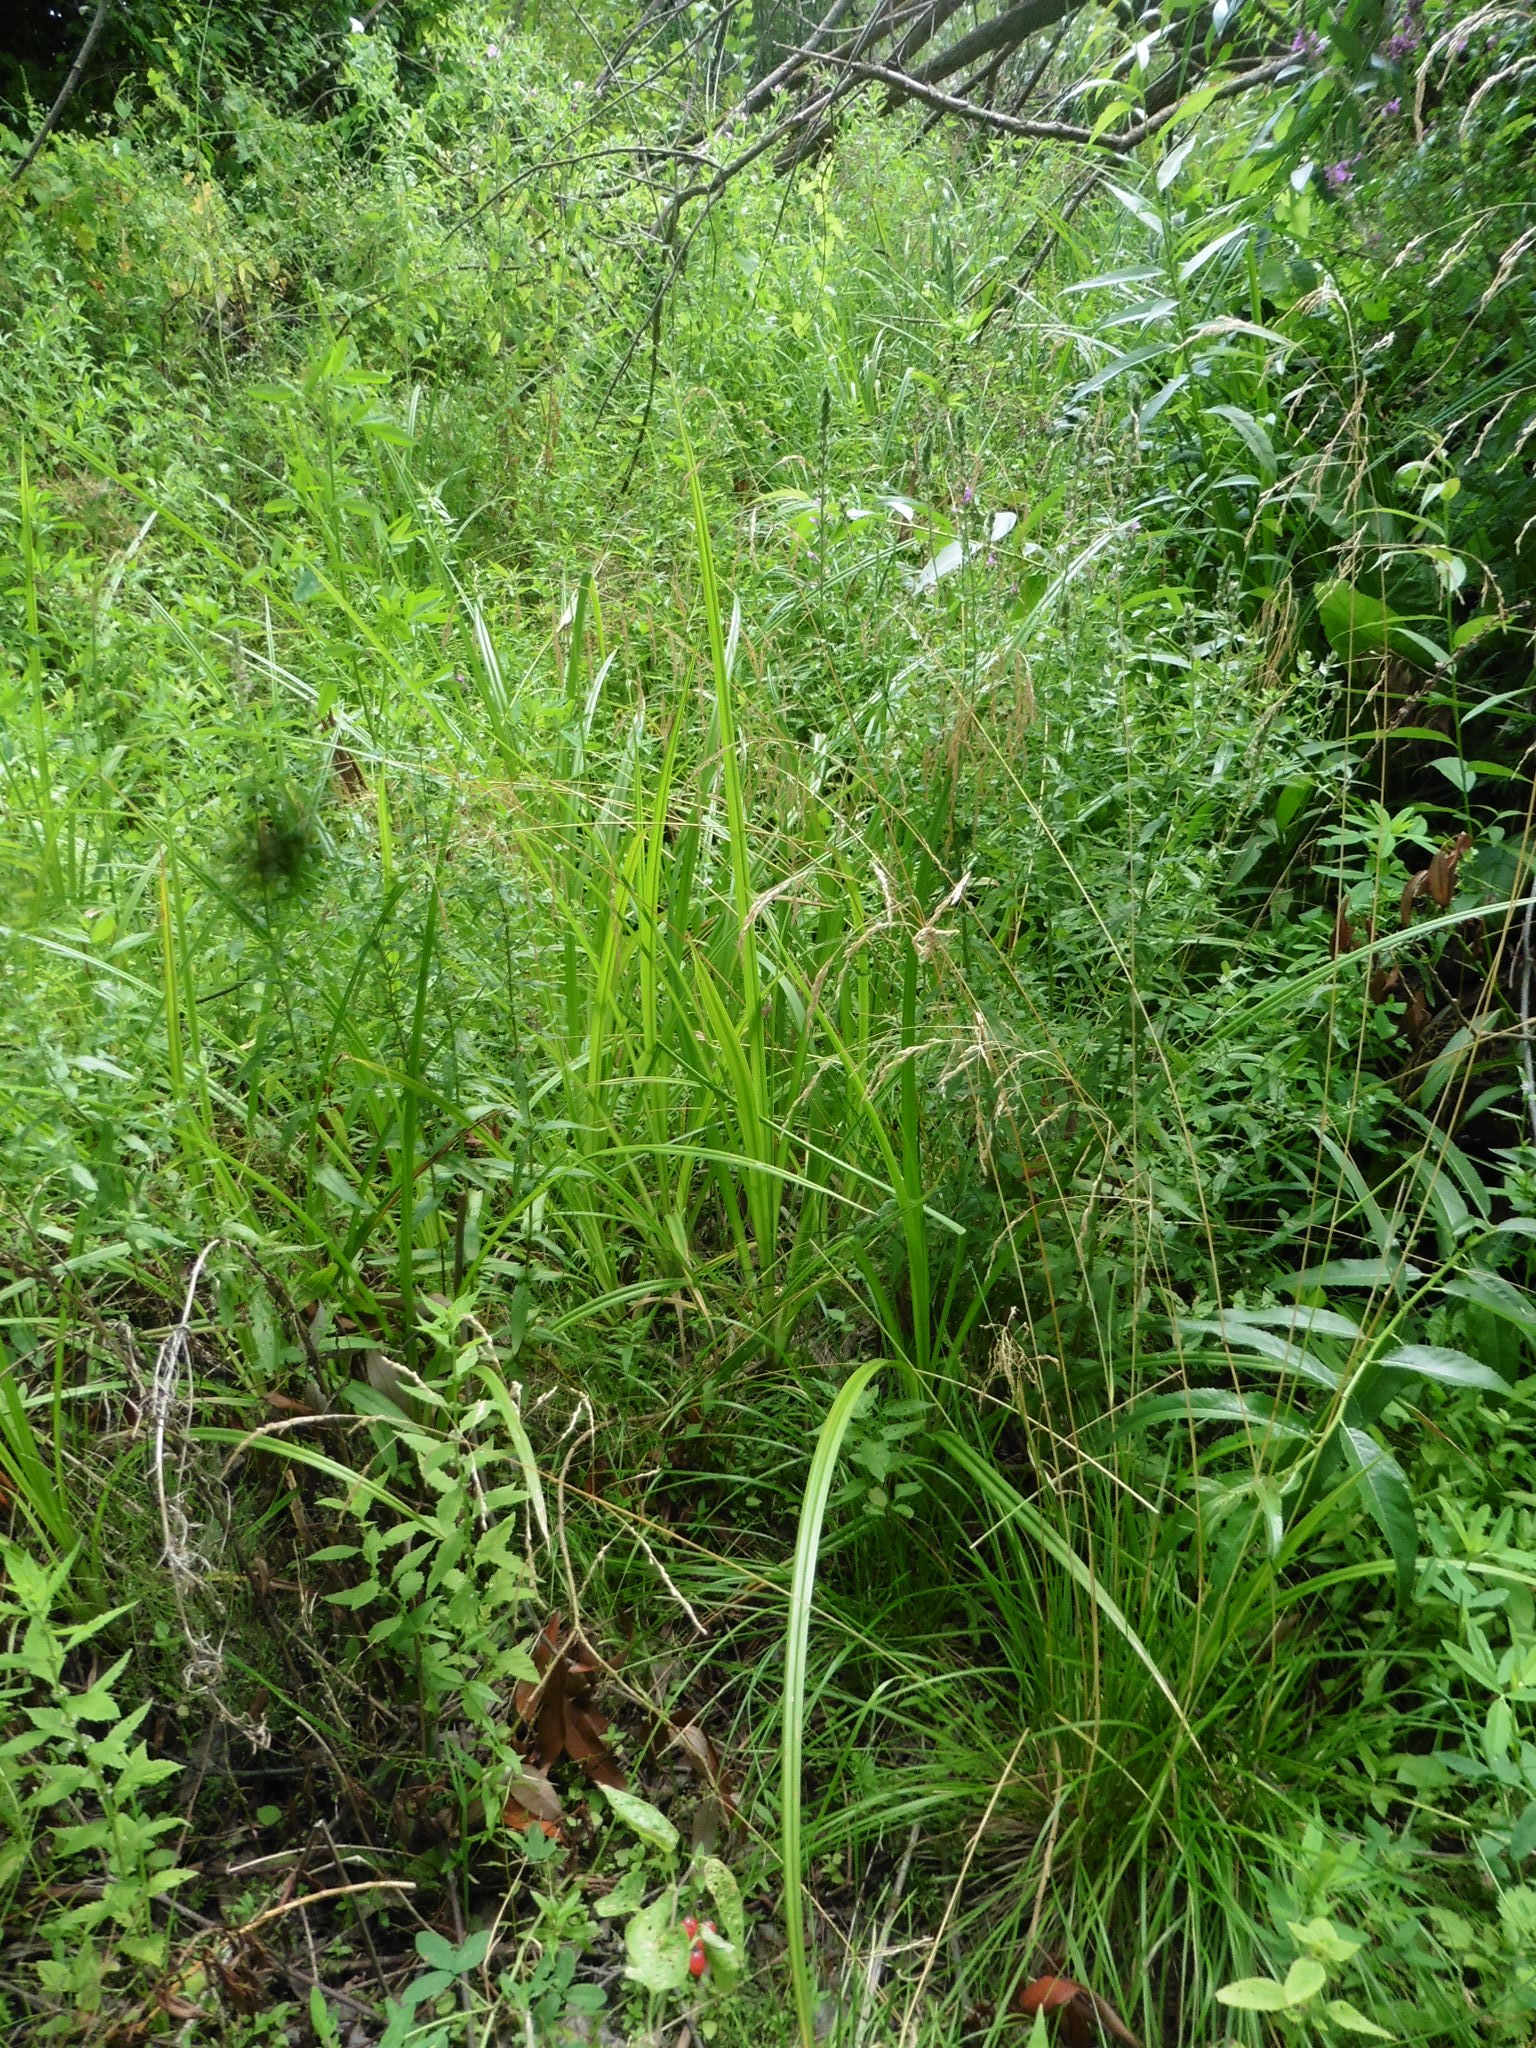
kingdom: Plantae
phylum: Tracheophyta
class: Liliopsida
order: Poales
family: Poaceae
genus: Deschampsia
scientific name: Deschampsia cespitosa
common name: Tufted hair-grass
